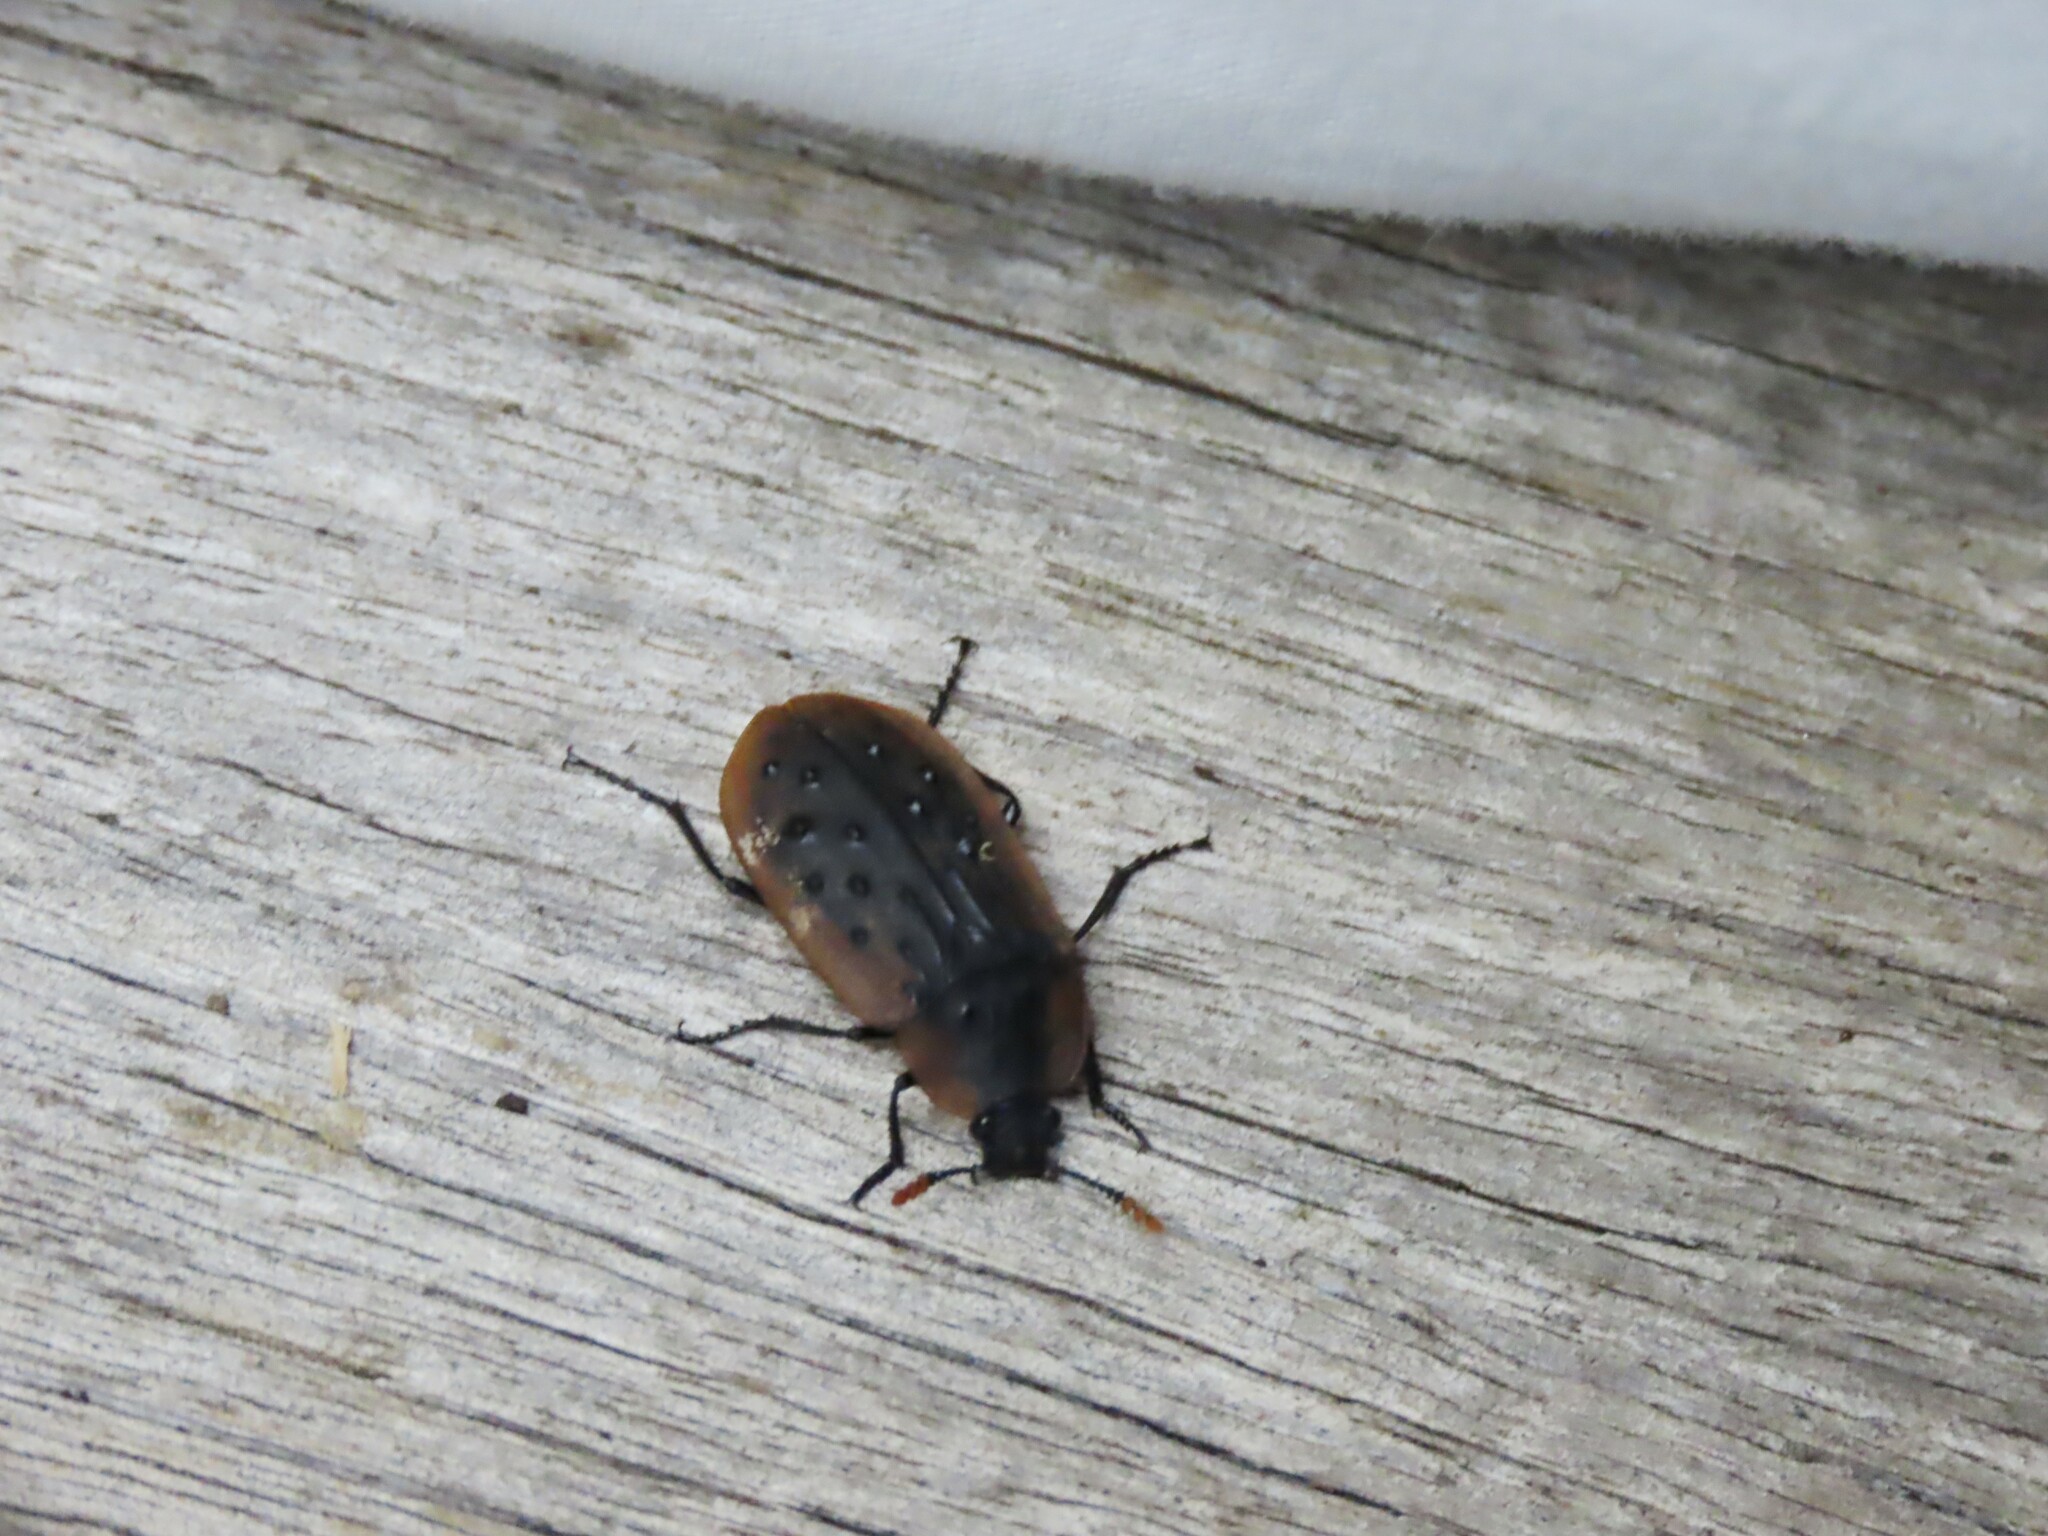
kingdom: Animalia
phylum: Arthropoda
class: Insecta
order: Coleoptera
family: Staphylinidae
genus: Ptomaphila
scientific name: Ptomaphila lacrymosa
